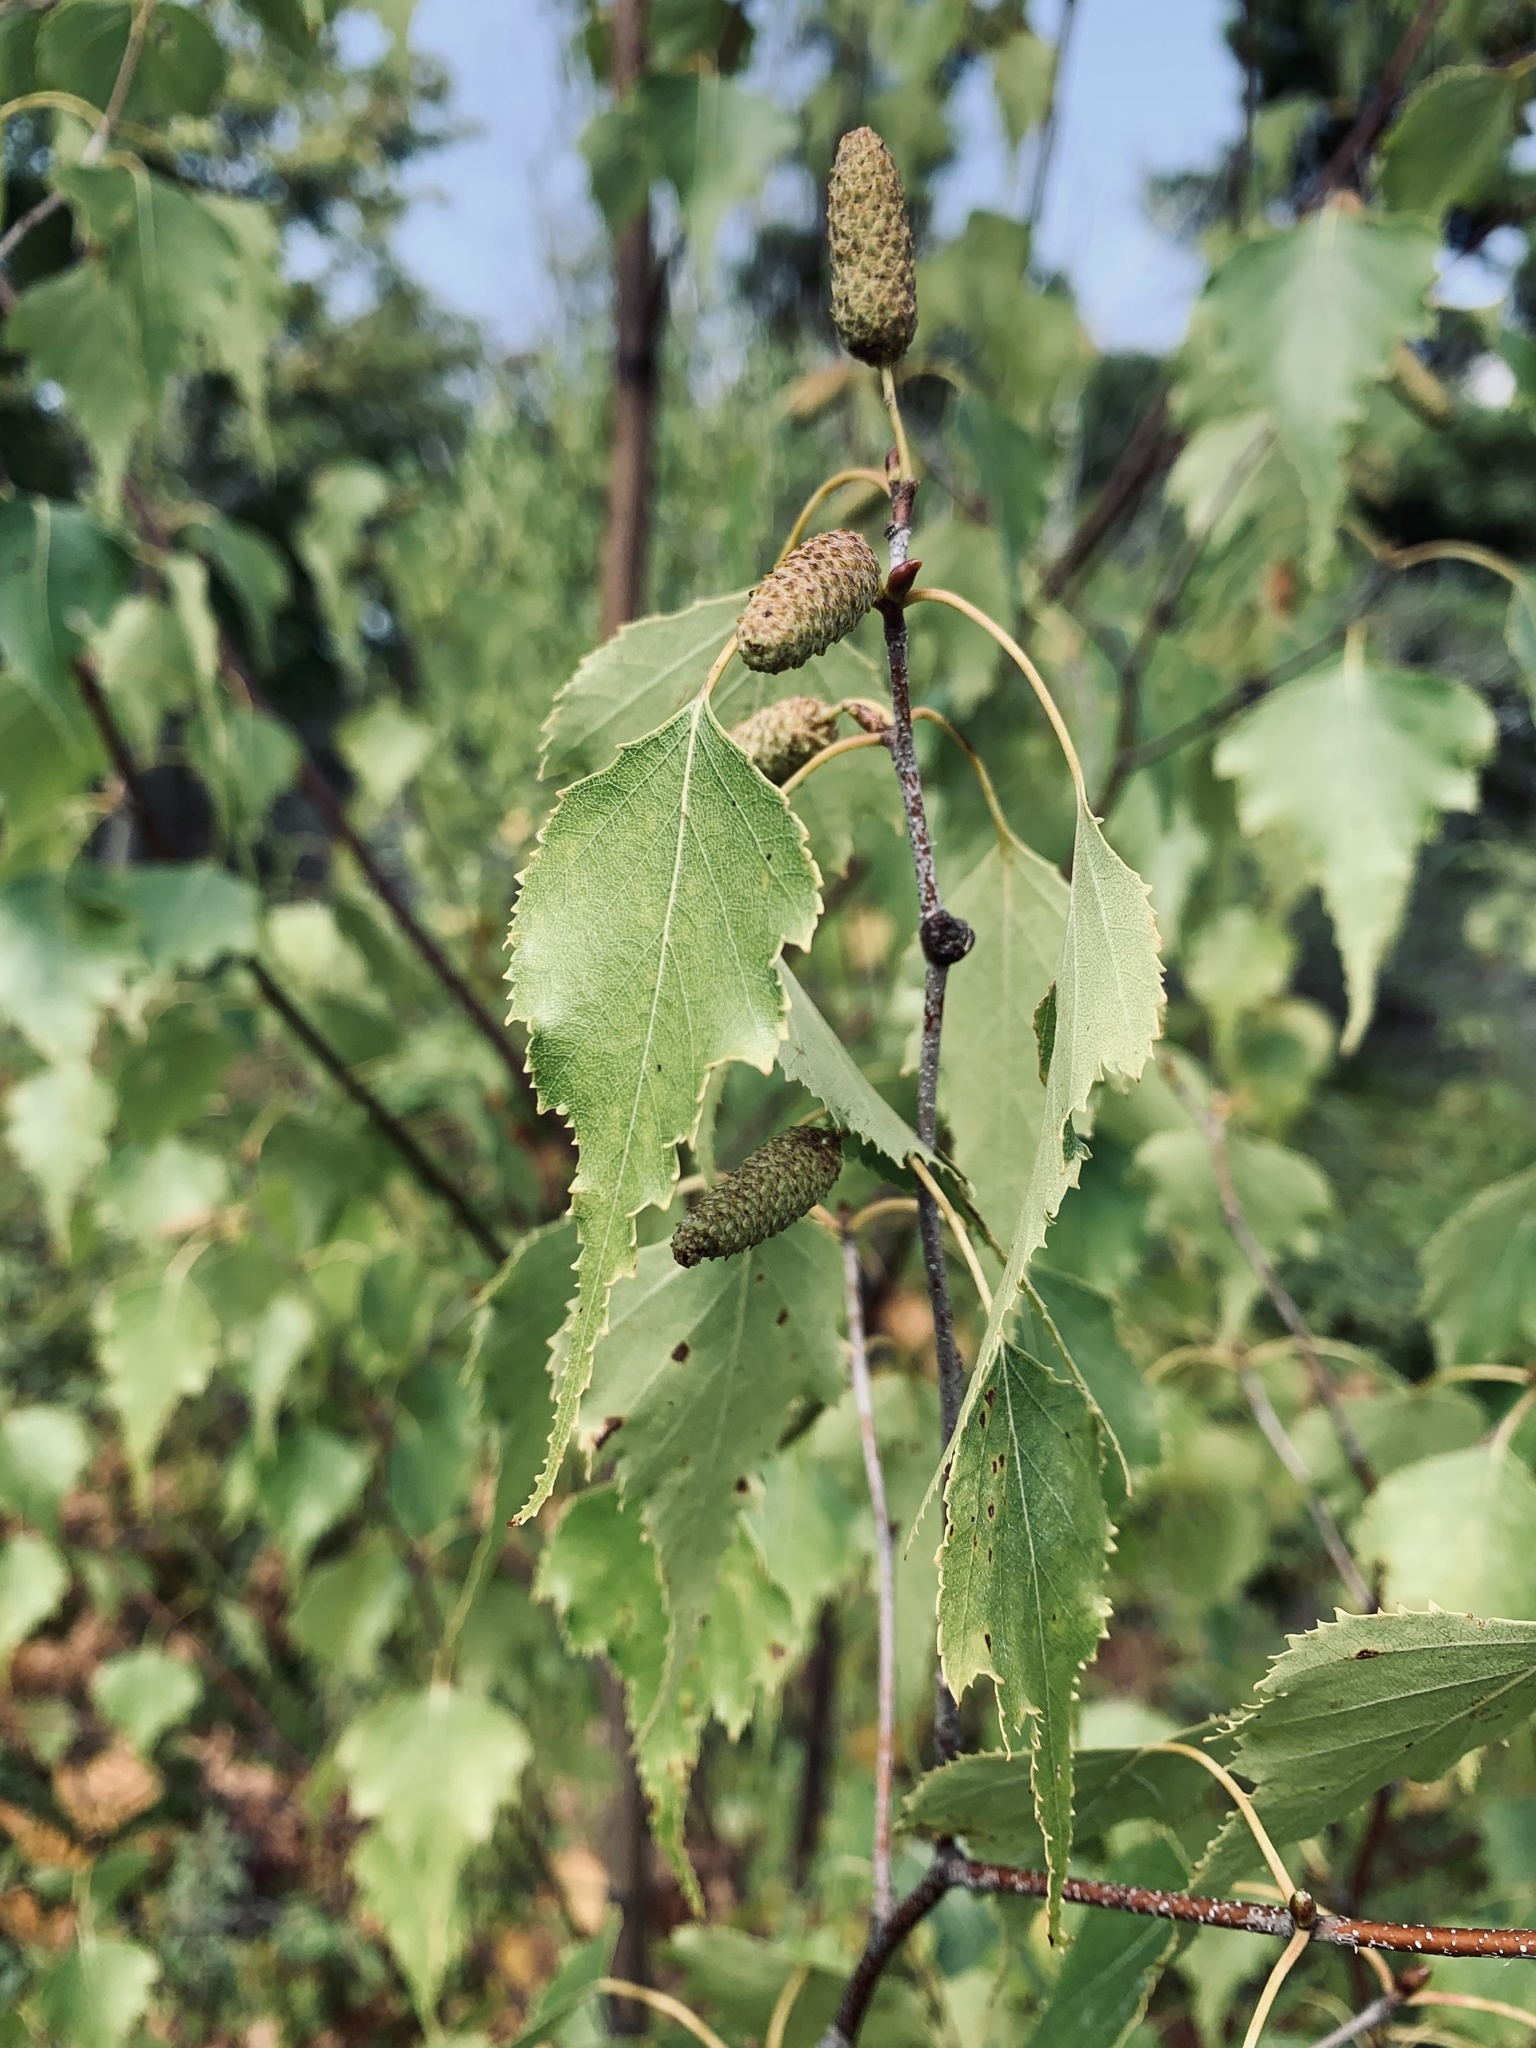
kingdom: Plantae
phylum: Tracheophyta
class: Magnoliopsida
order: Fagales
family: Betulaceae
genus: Betula
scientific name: Betula populifolia
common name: Fire birch
